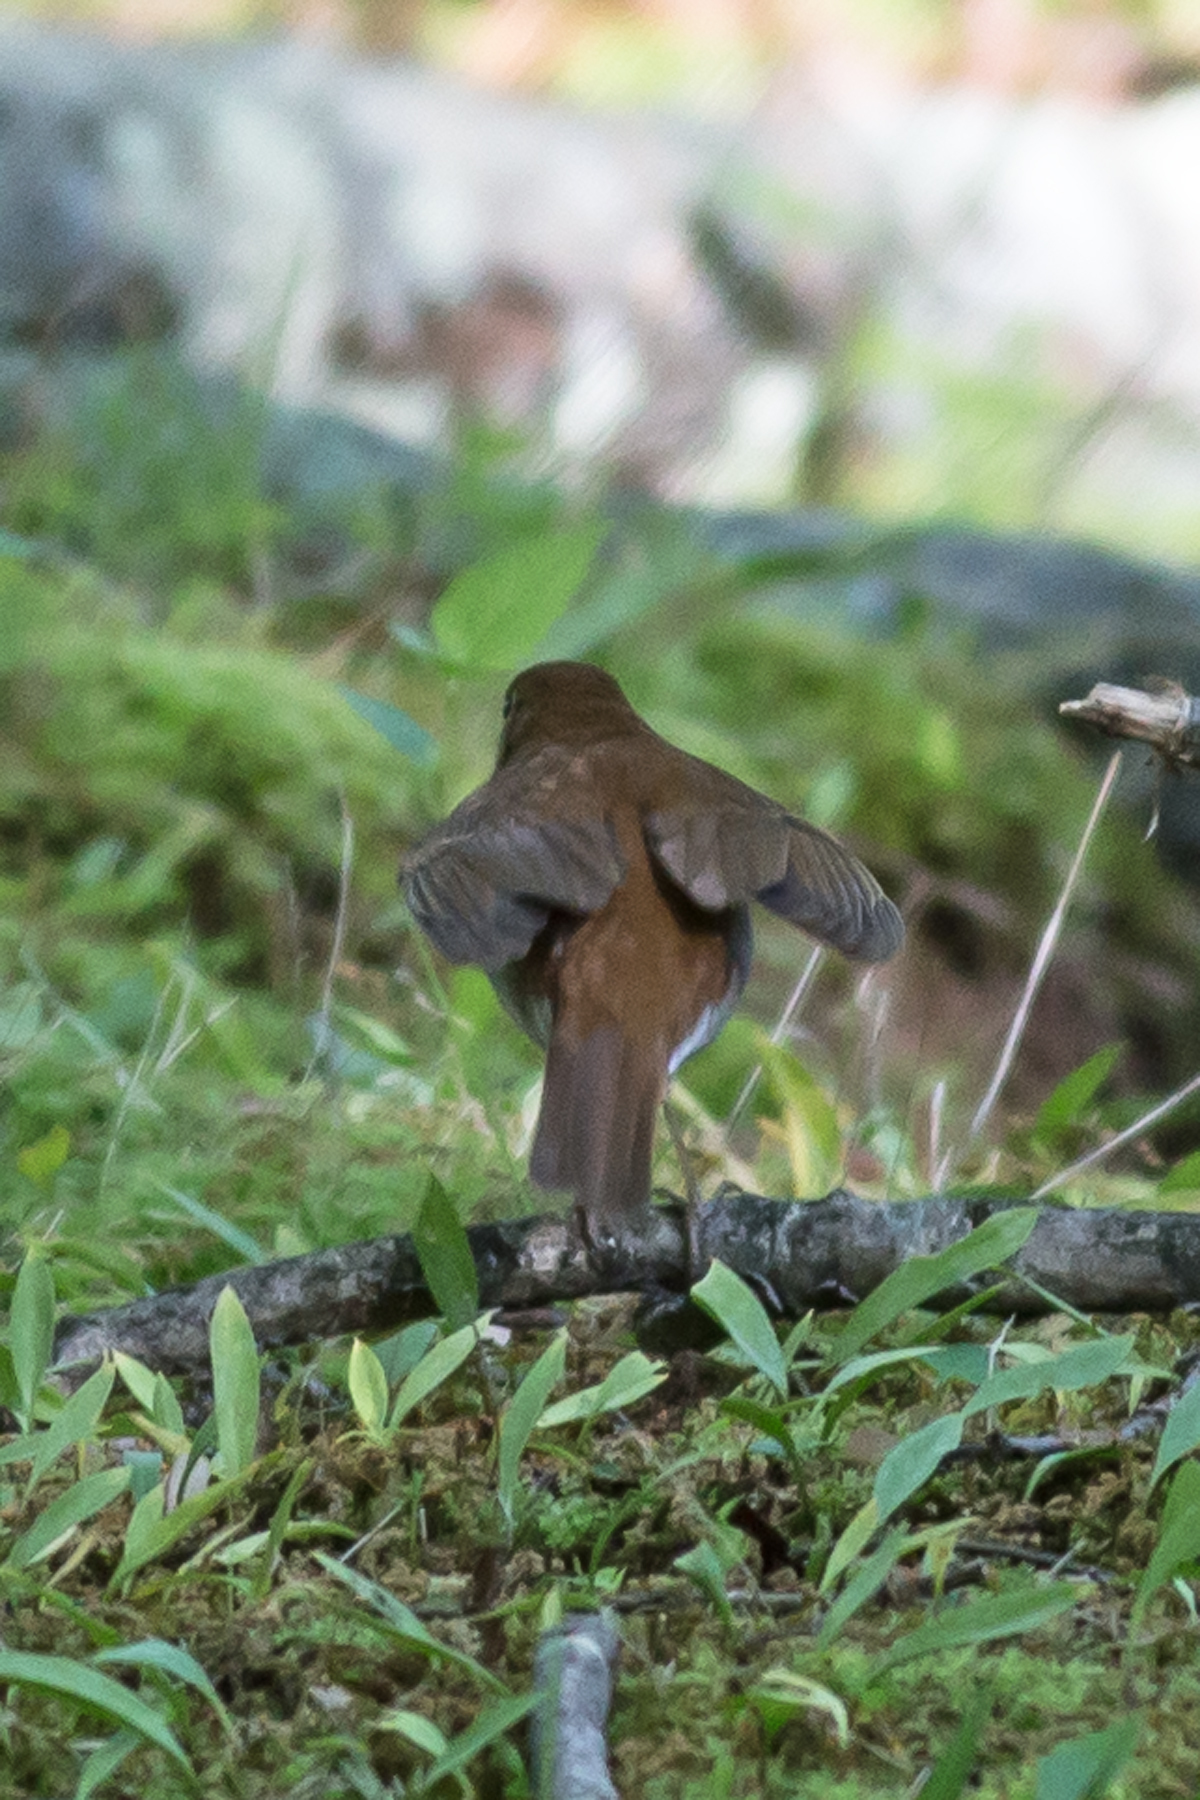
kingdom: Animalia
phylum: Chordata
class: Aves
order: Passeriformes
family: Turdidae
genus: Catharus
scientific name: Catharus fuscescens
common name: Veery
